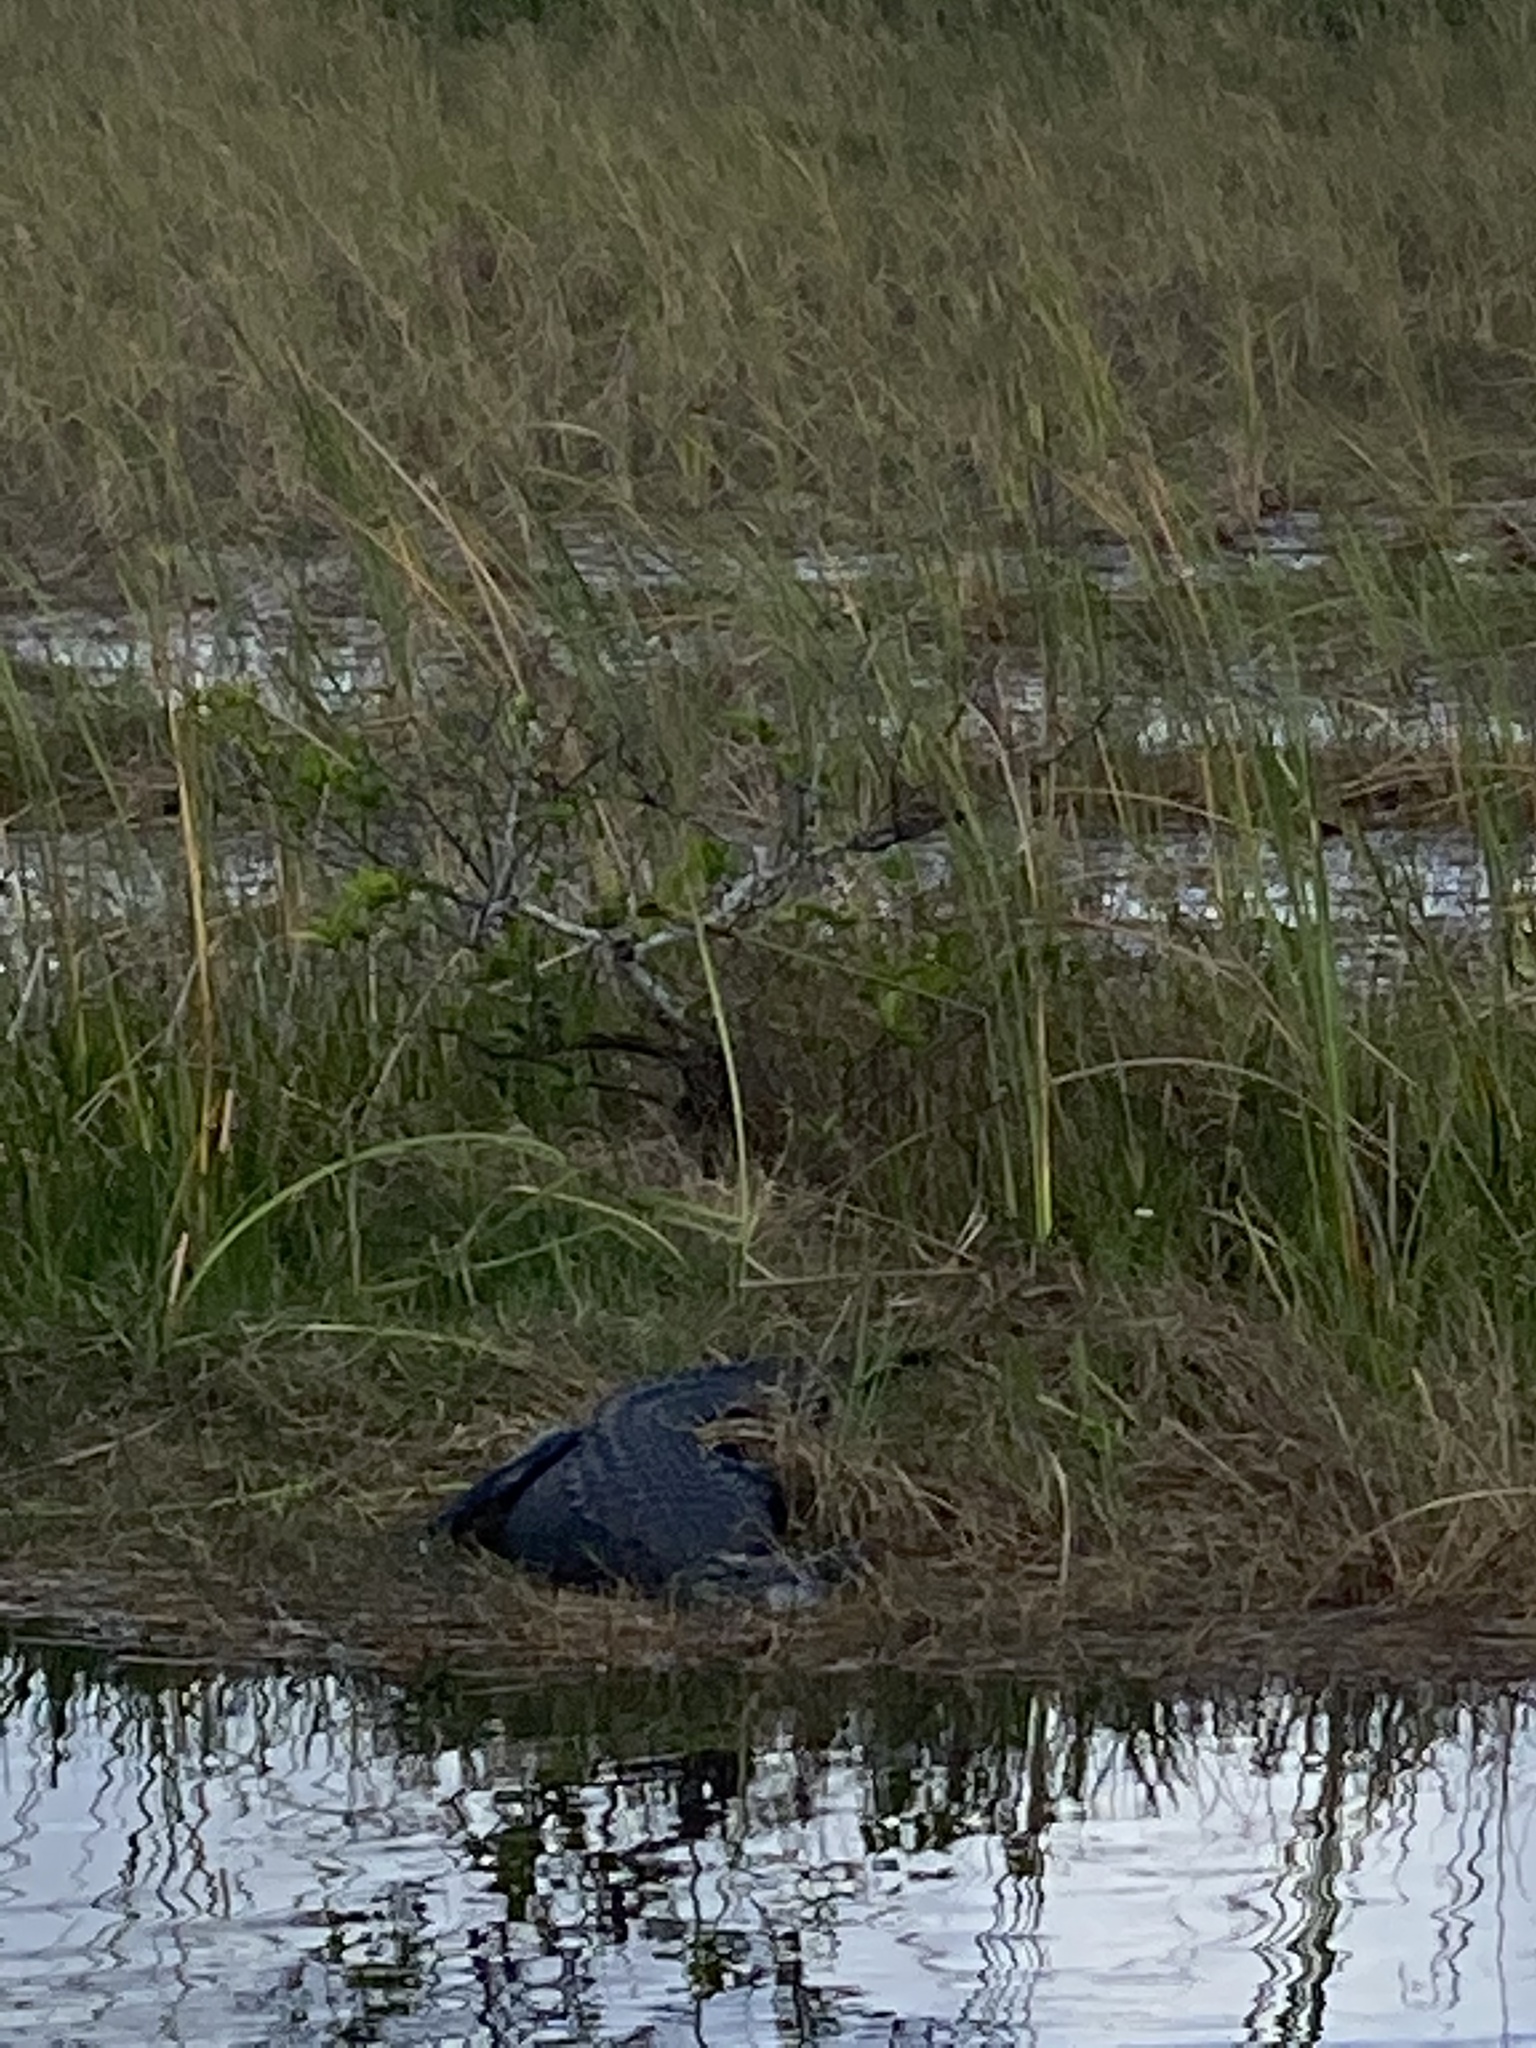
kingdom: Animalia
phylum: Chordata
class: Crocodylia
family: Alligatoridae
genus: Alligator
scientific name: Alligator mississippiensis
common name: American alligator
